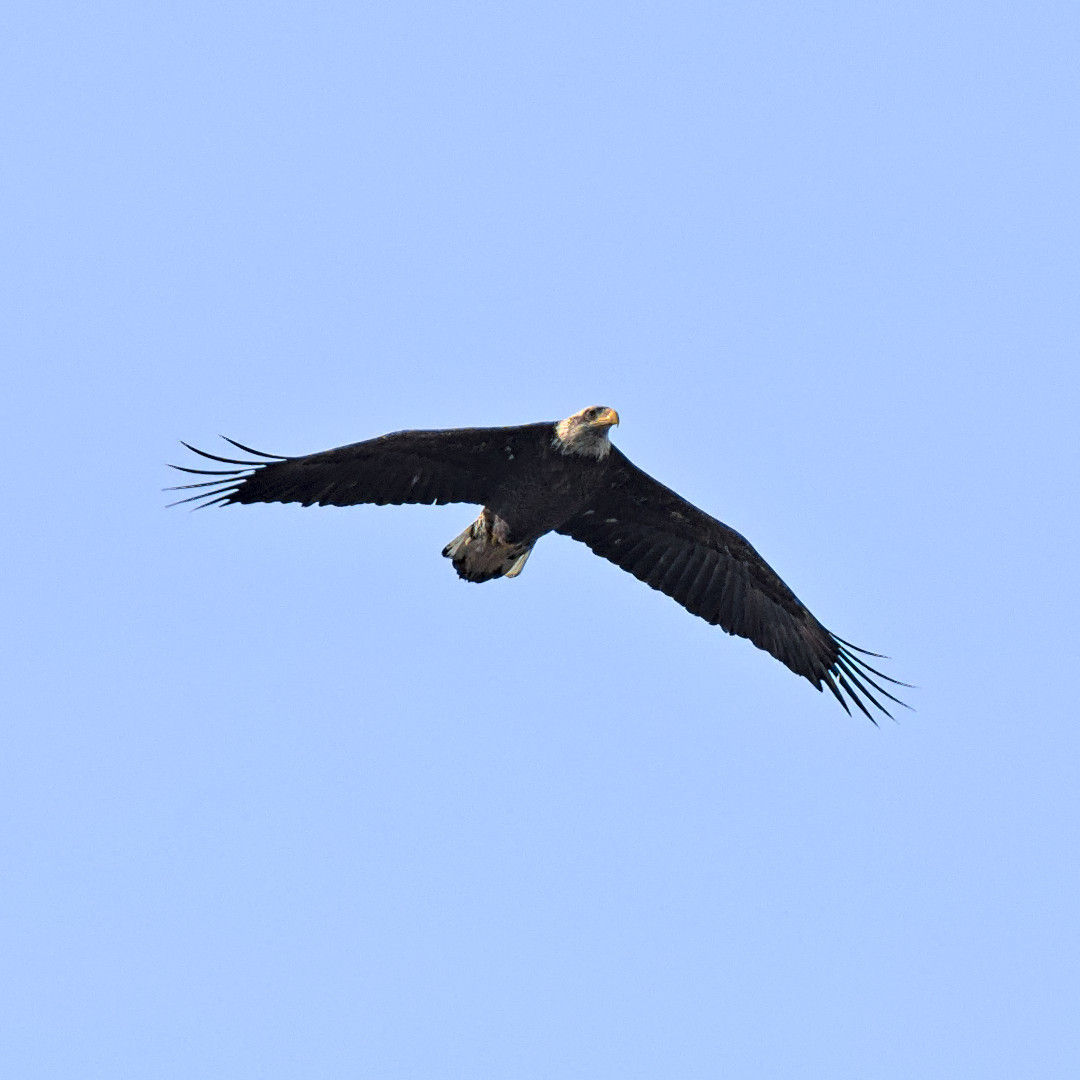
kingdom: Animalia
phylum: Chordata
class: Aves
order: Accipitriformes
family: Accipitridae
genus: Haliaeetus
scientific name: Haliaeetus leucocephalus
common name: Bald eagle
